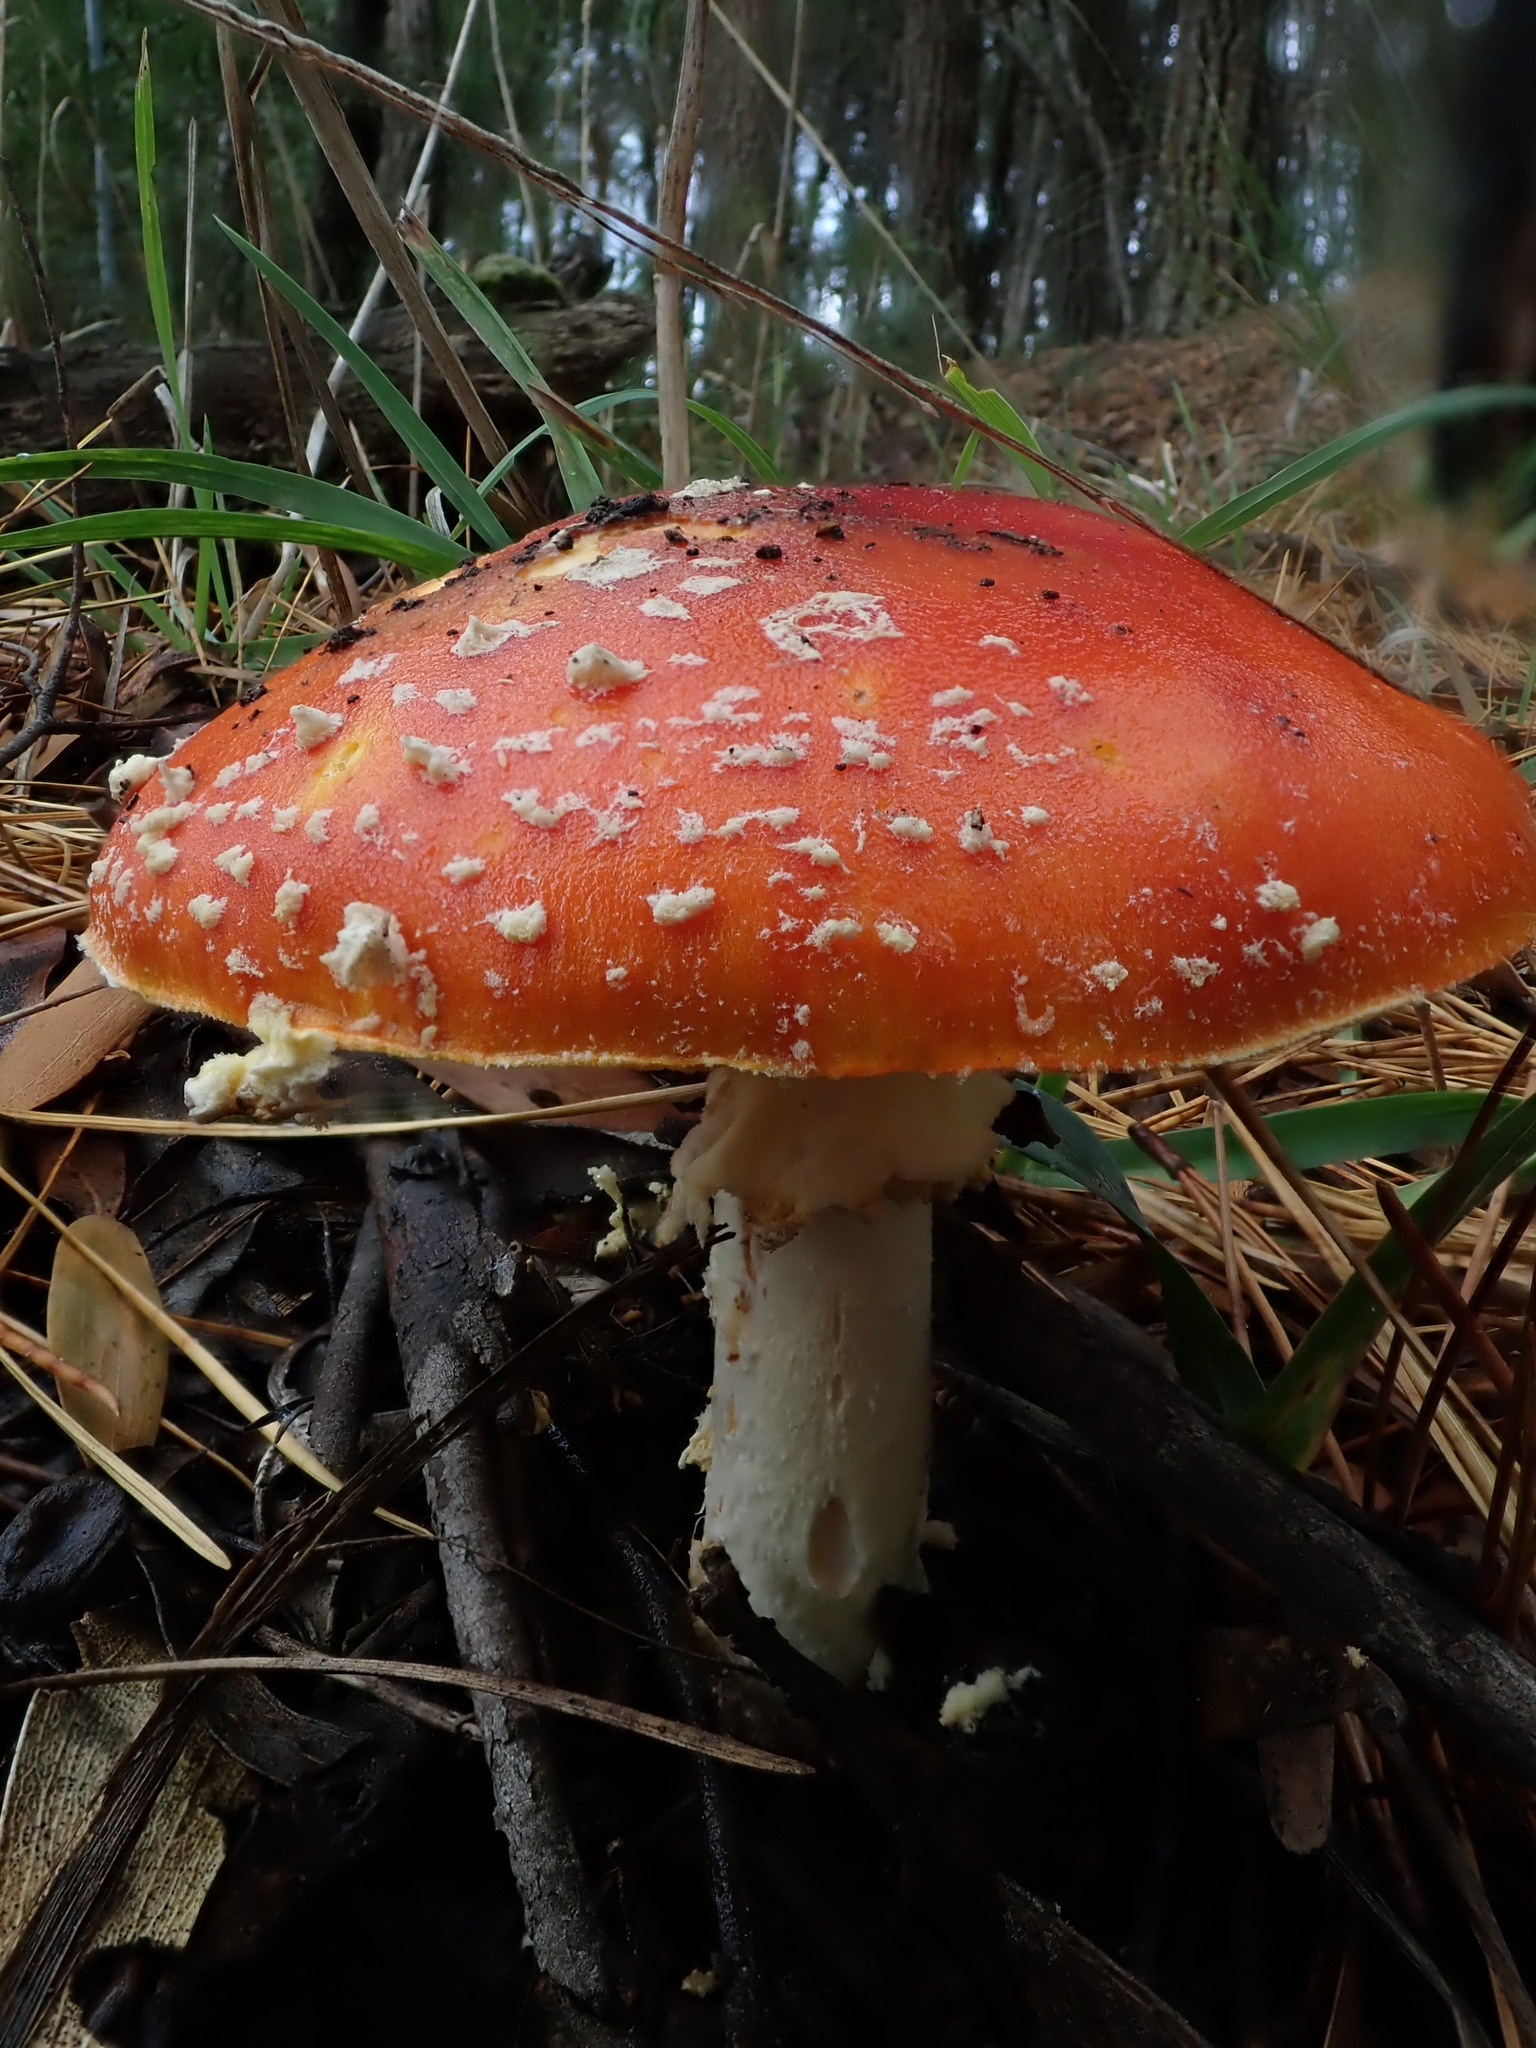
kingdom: Fungi
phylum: Basidiomycota
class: Agaricomycetes
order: Agaricales
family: Amanitaceae
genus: Amanita
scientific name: Amanita muscaria
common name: Fly agaric
